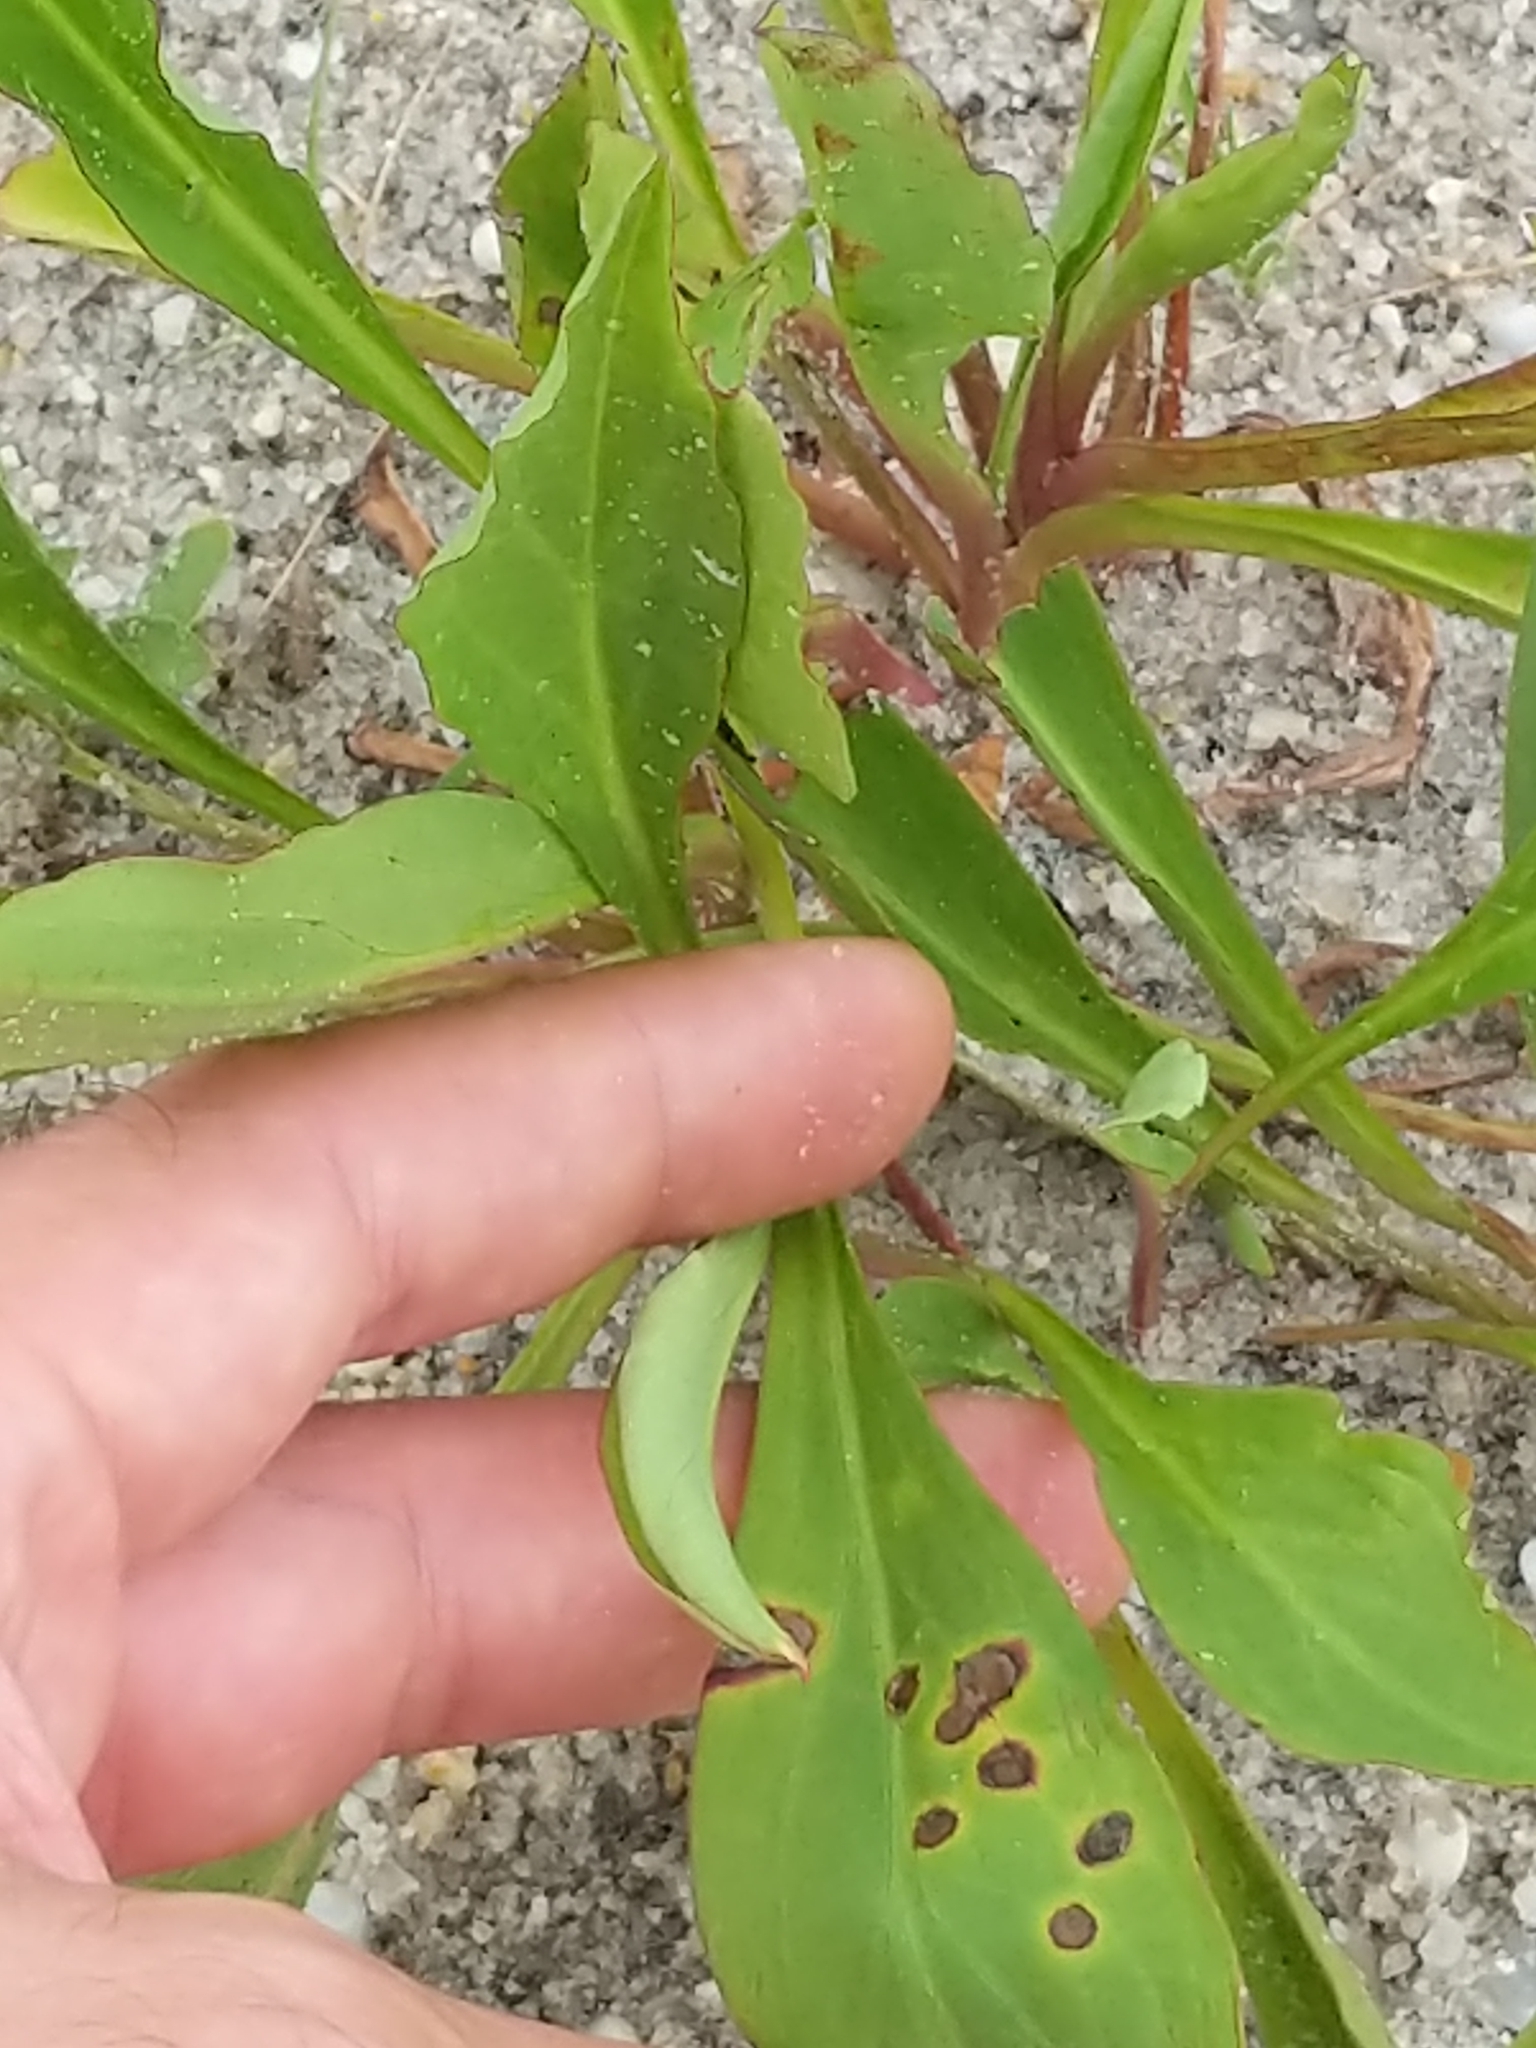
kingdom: Plantae
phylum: Tracheophyta
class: Magnoliopsida
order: Asterales
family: Asteraceae
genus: Solidago
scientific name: Solidago sempervirens
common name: Salt-marsh goldenrod
